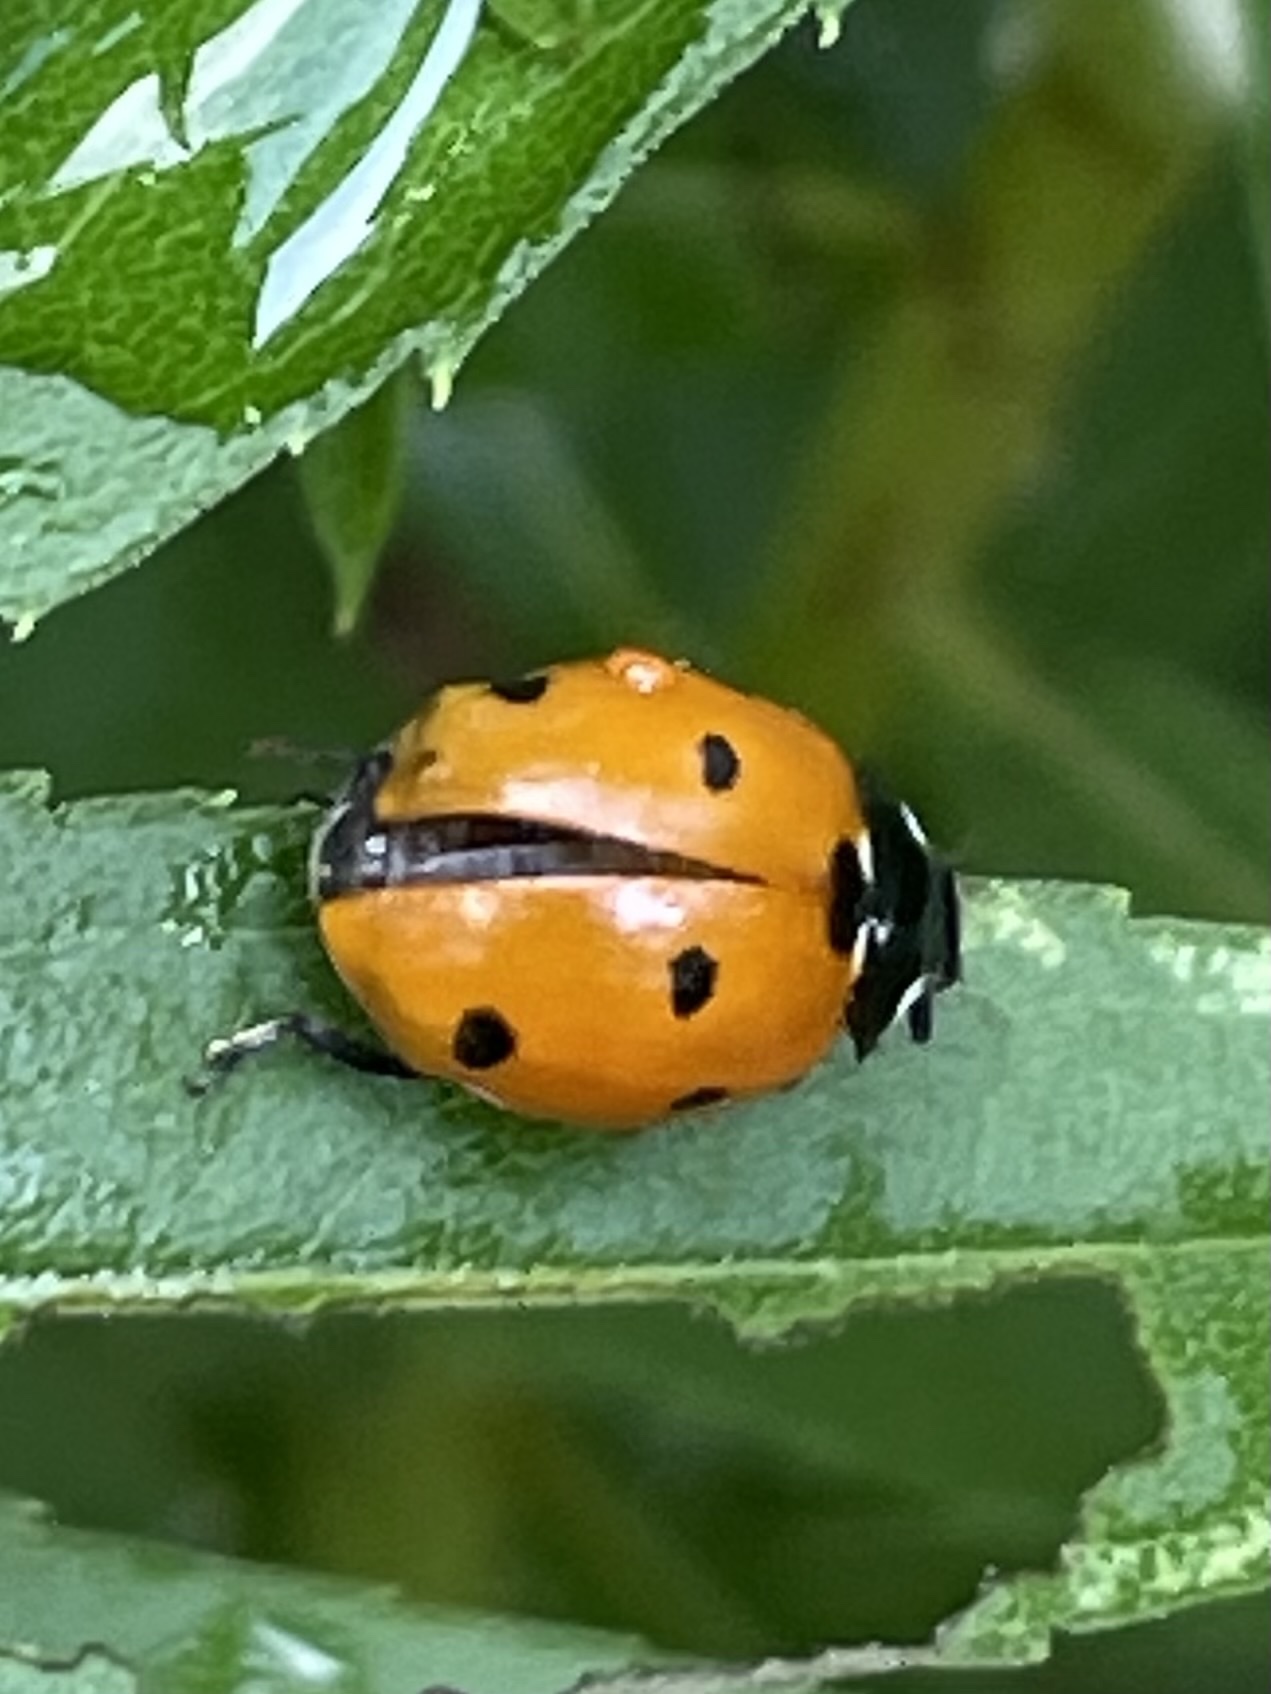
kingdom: Animalia
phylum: Arthropoda
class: Insecta
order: Coleoptera
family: Coccinellidae
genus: Coccinella
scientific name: Coccinella septempunctata
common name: Sevenspotted lady beetle
